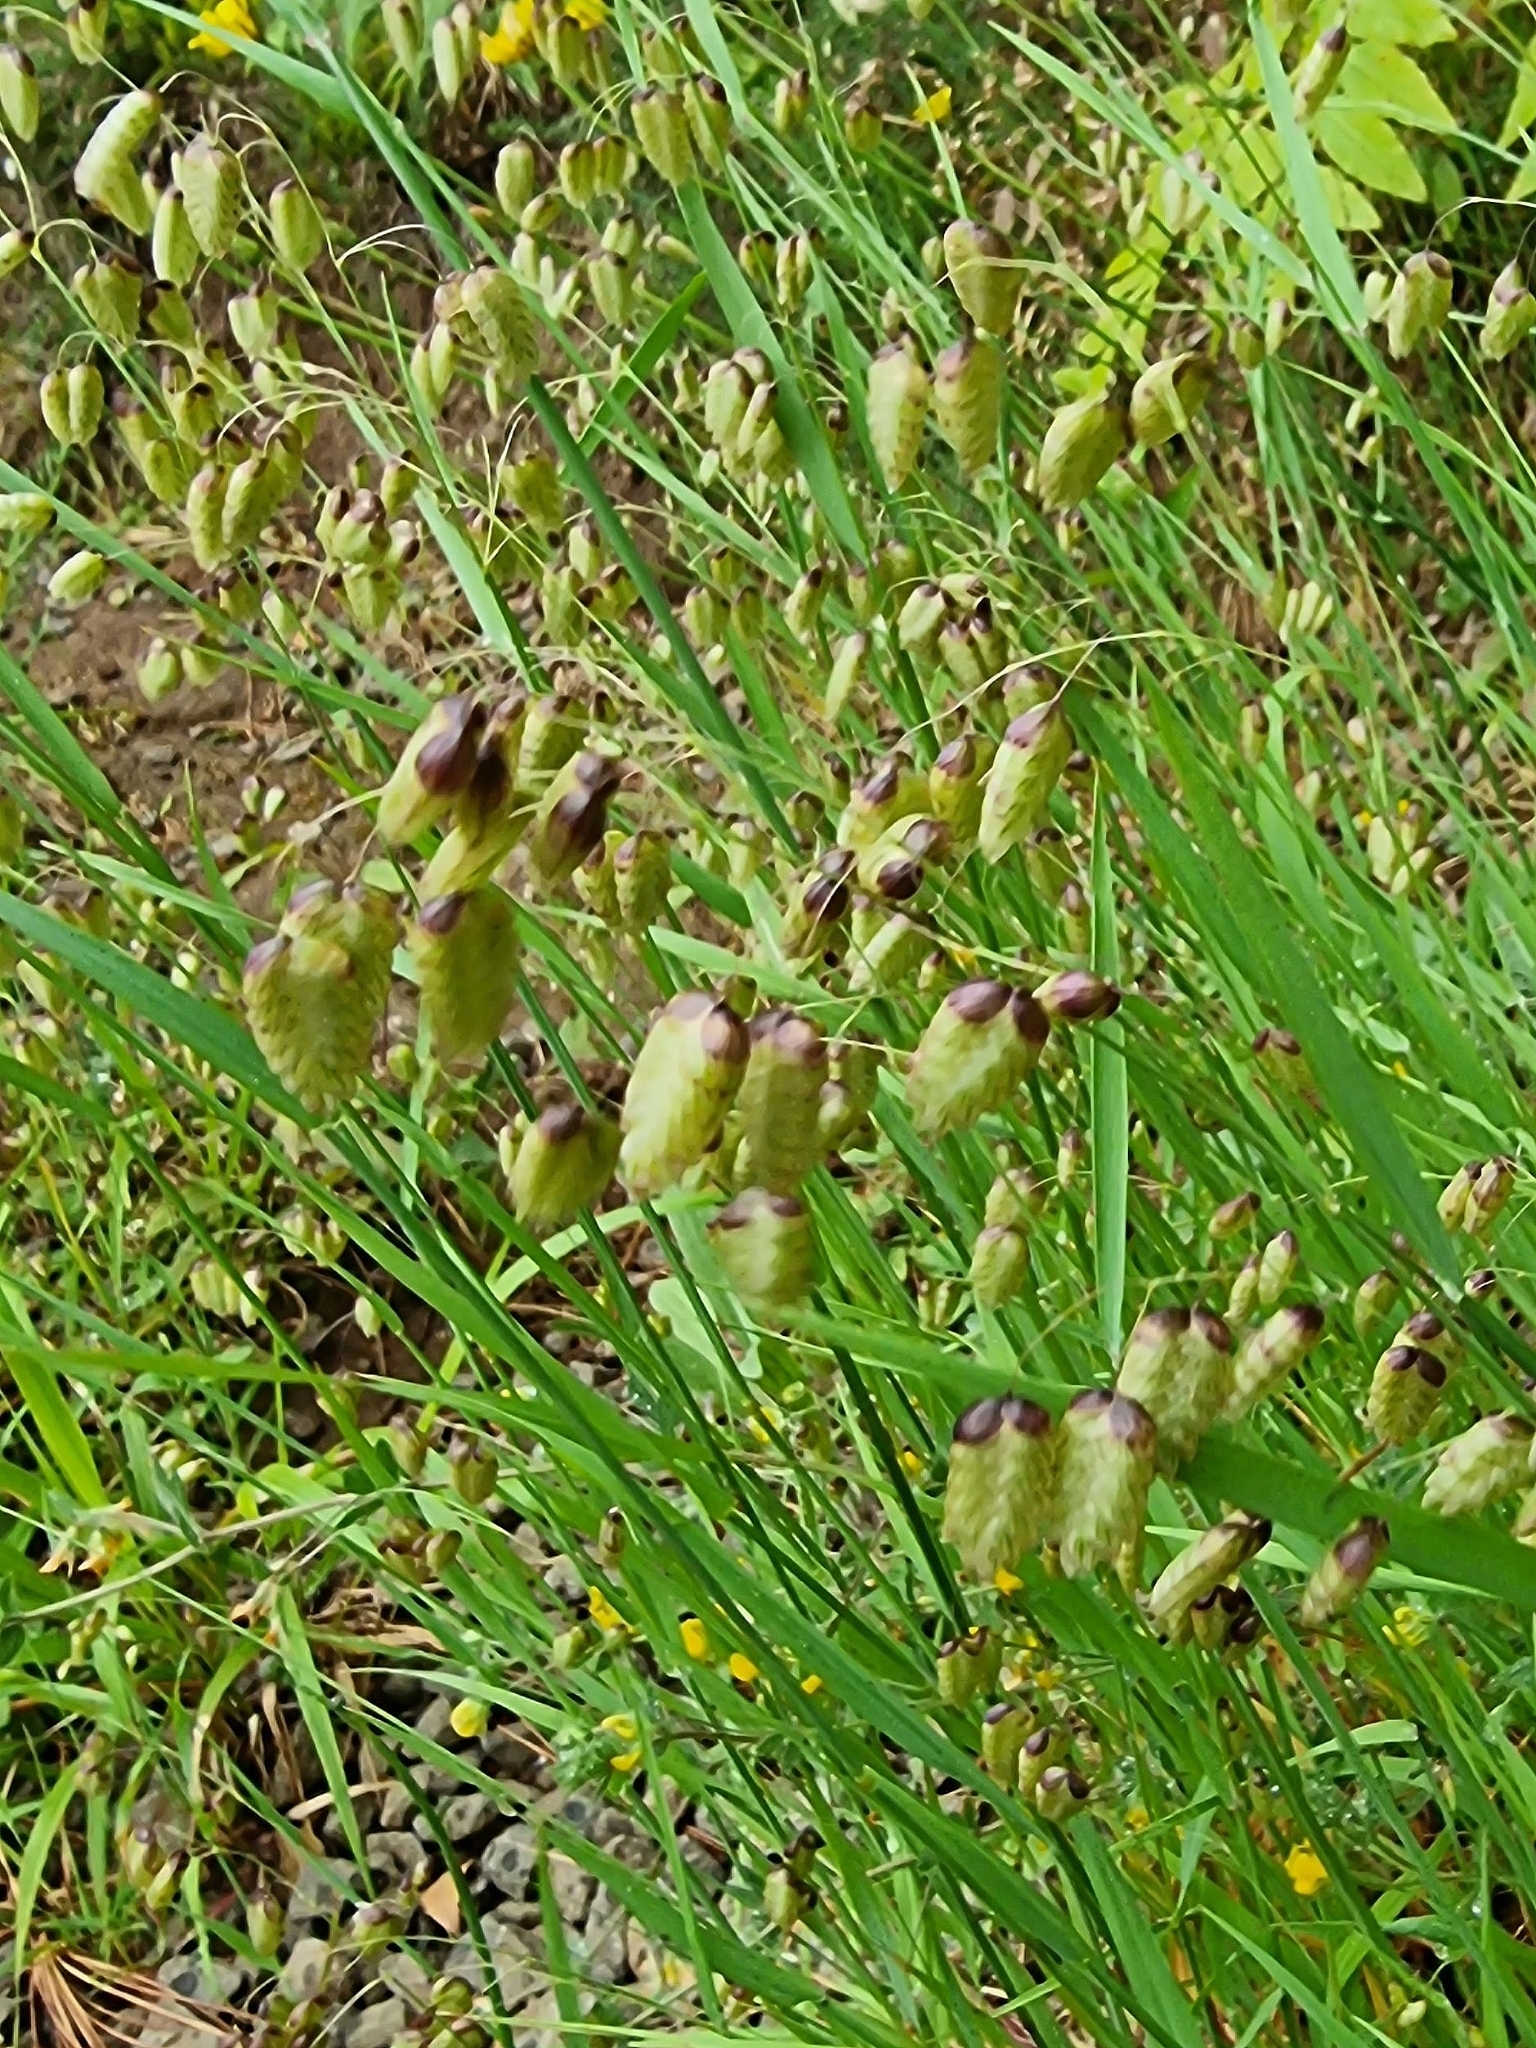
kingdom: Plantae
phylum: Tracheophyta
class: Liliopsida
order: Poales
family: Poaceae
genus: Briza
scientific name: Briza maxima
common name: Big quakinggrass
